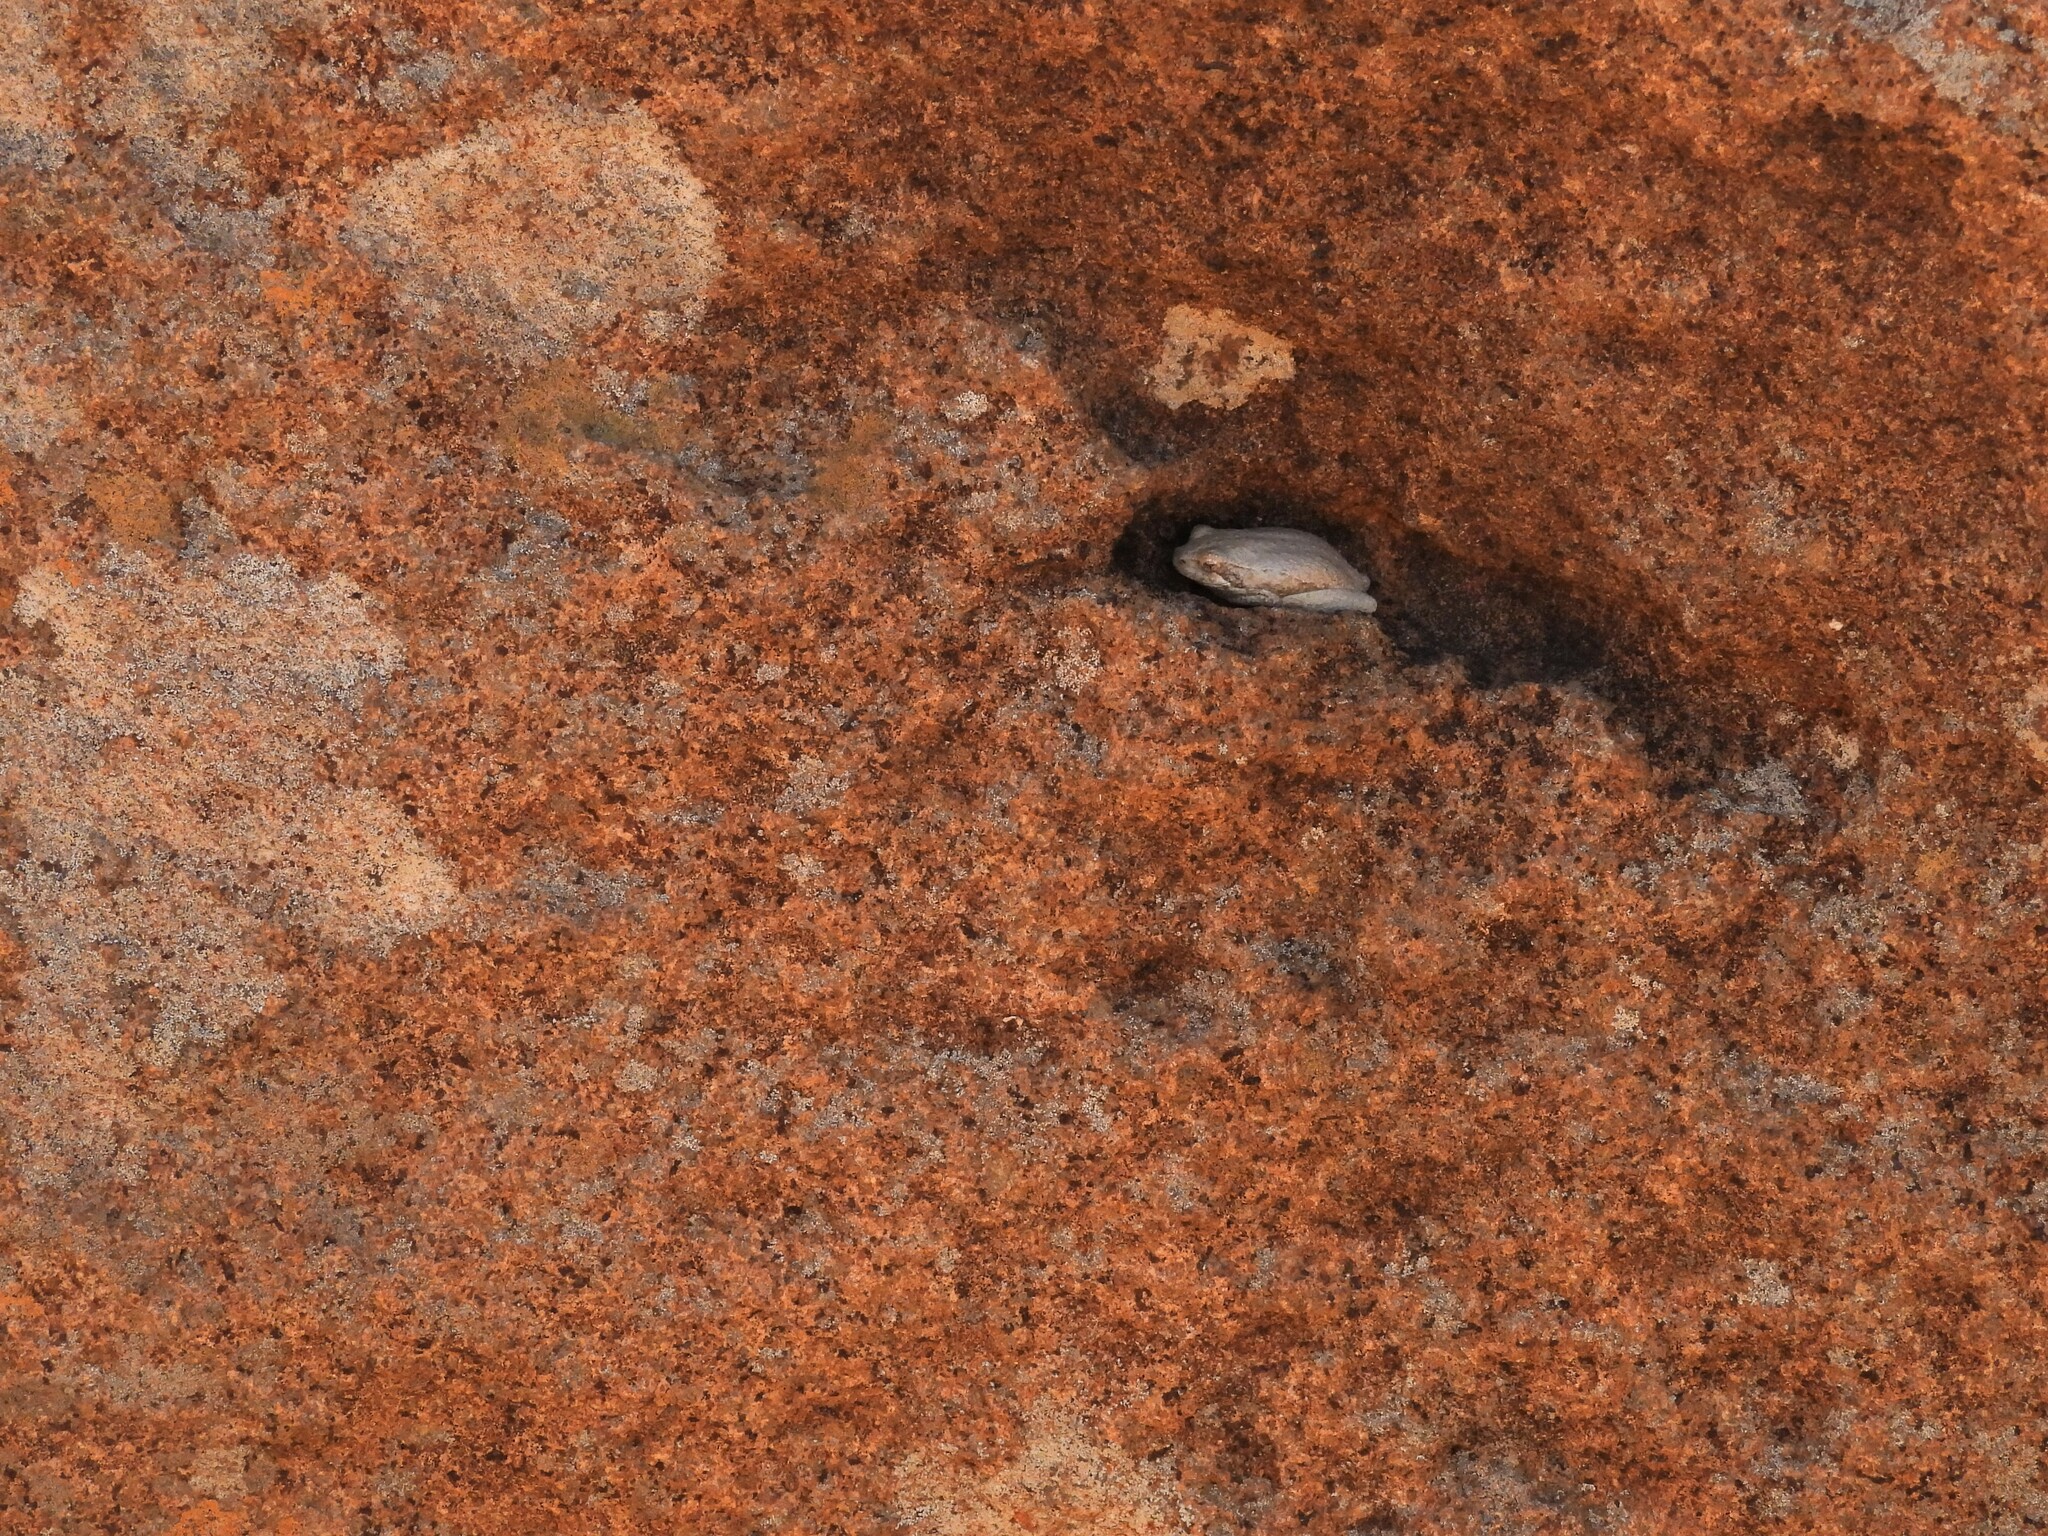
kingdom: Animalia
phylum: Chordata
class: Amphibia
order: Anura
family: Hyperoliidae
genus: Hyperolius
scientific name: Hyperolius marmoratus
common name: Painted reed frog
